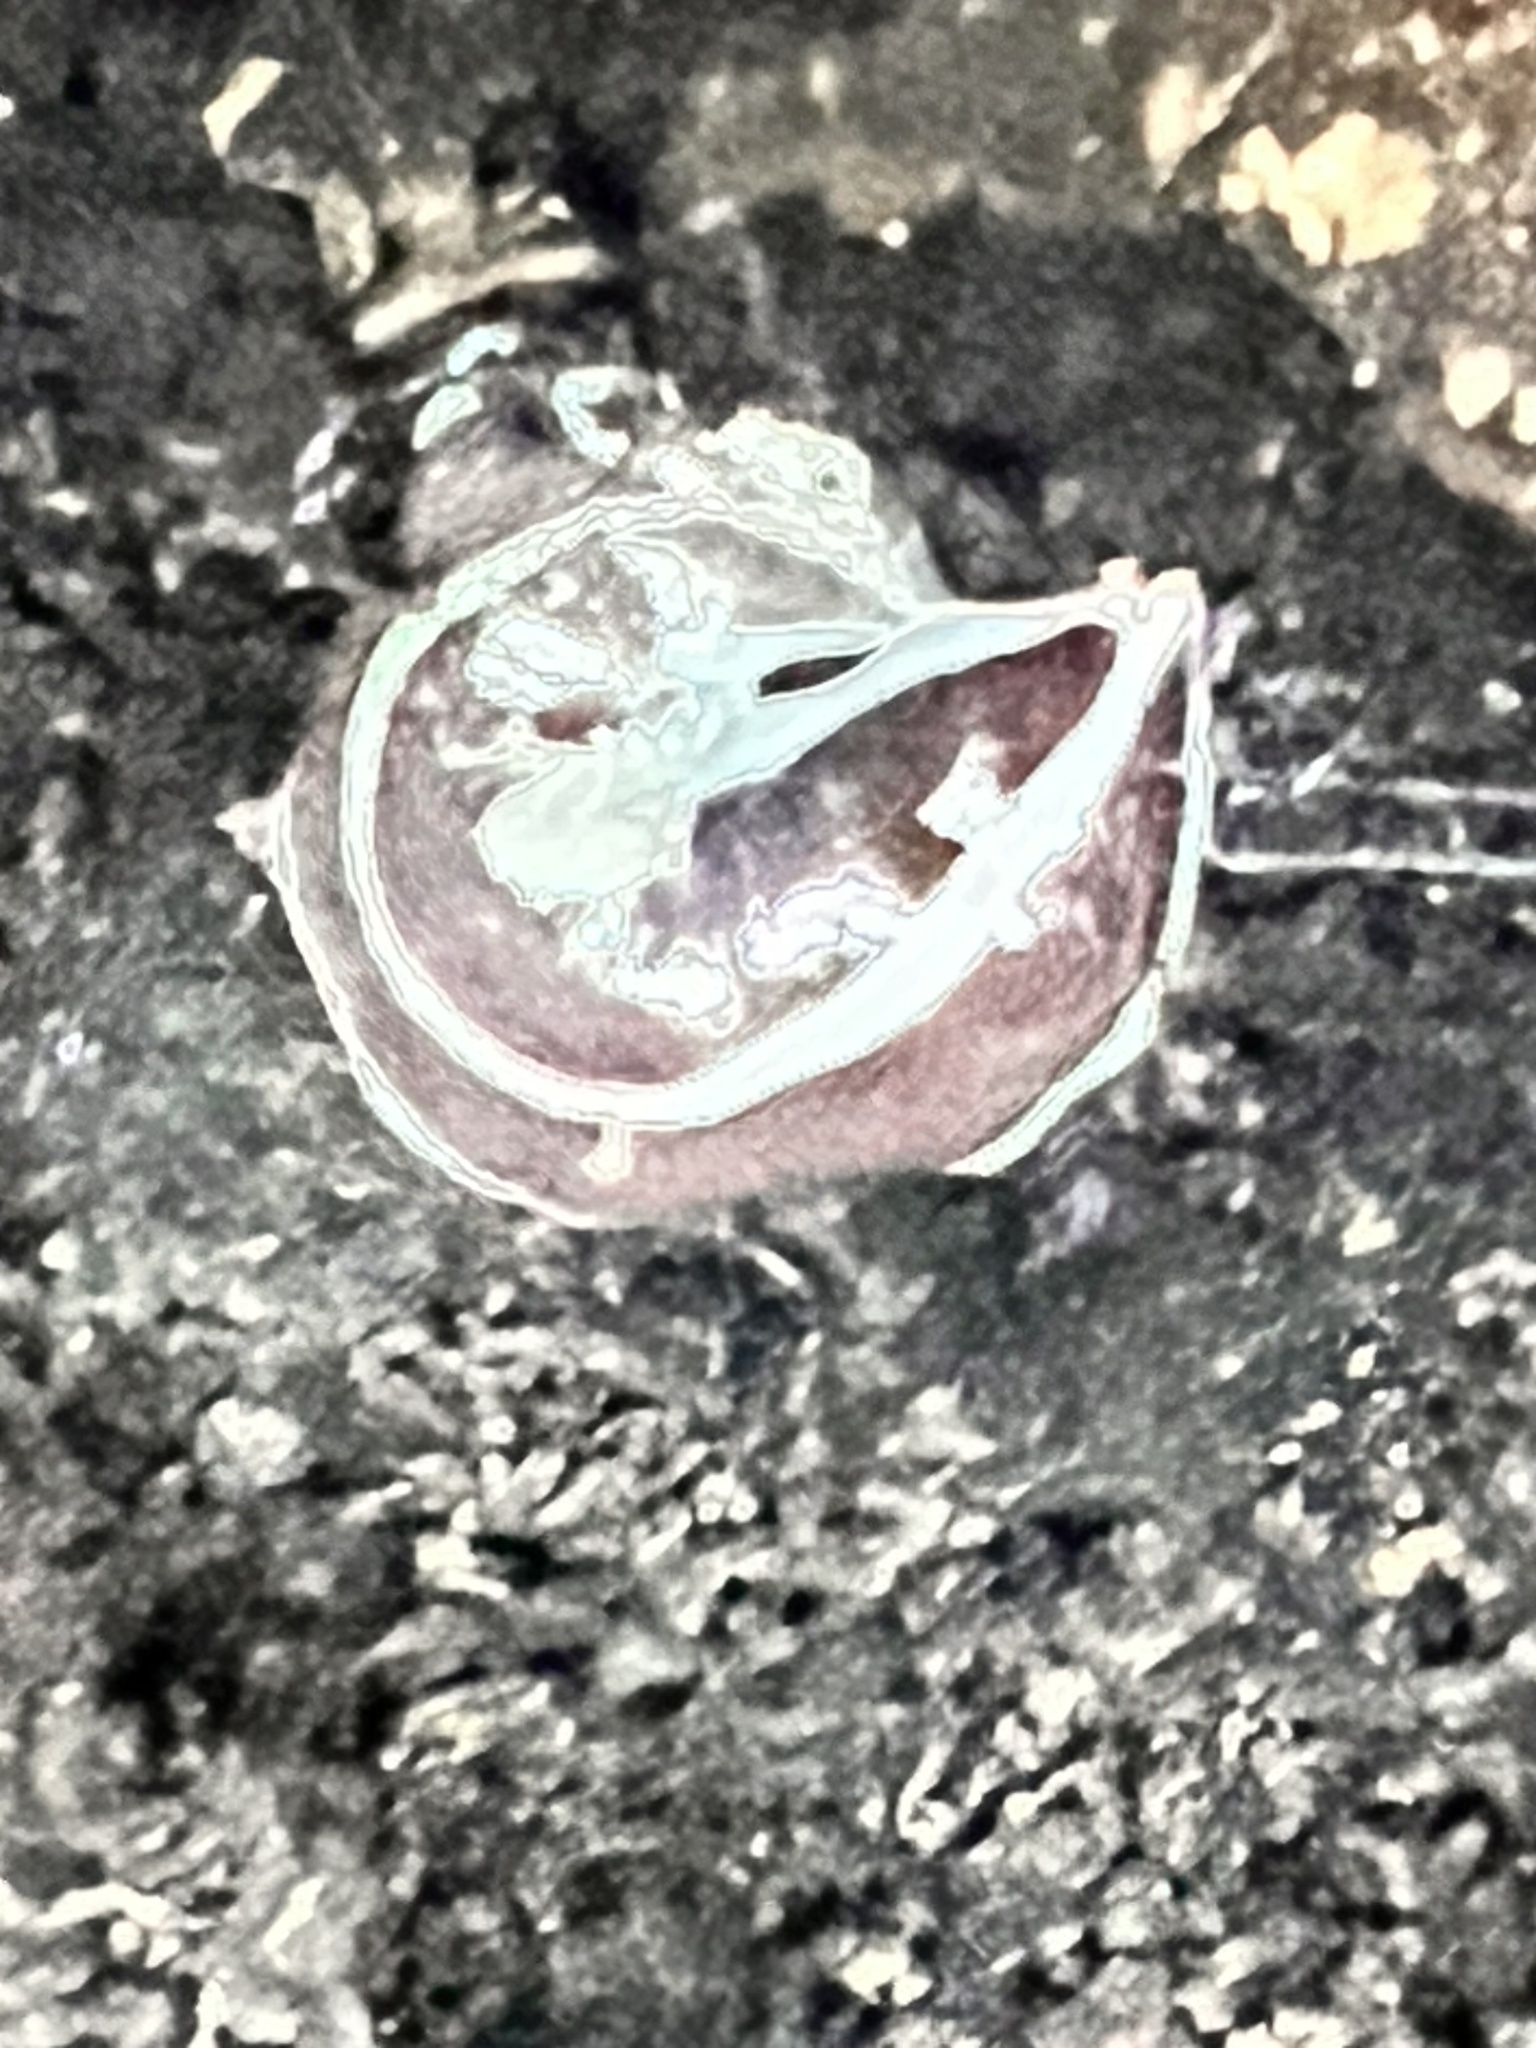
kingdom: Animalia
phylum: Platyhelminthes
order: Tricladida
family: Geoplanidae
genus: Newzealandia
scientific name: Newzealandia graffii
